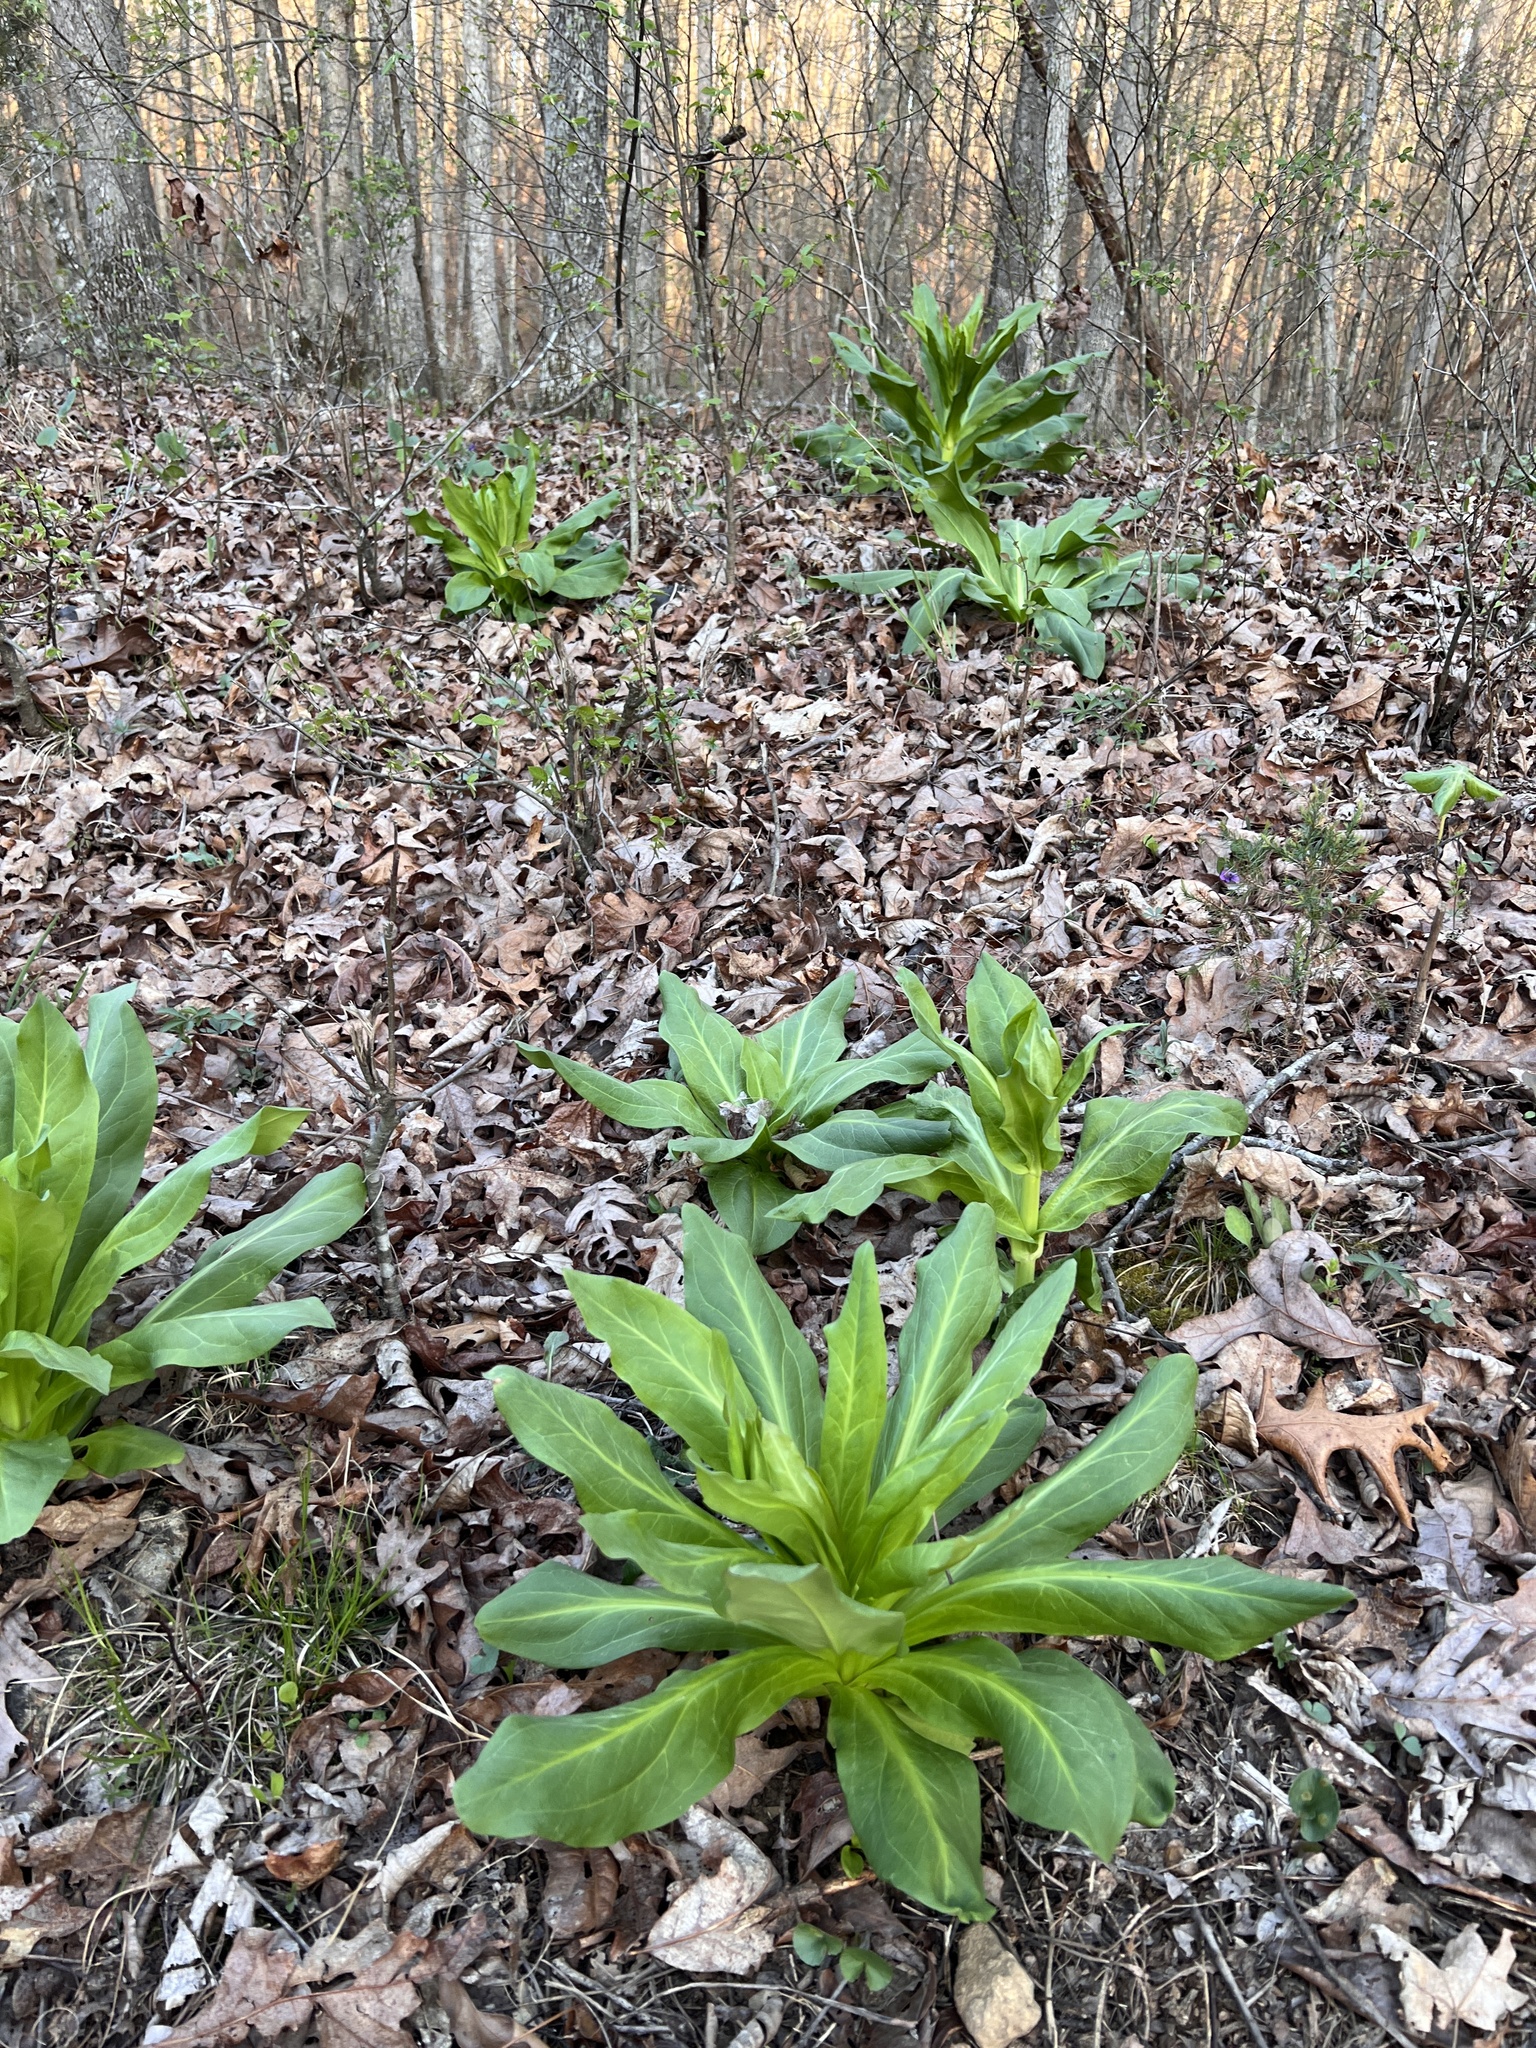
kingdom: Plantae
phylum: Tracheophyta
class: Magnoliopsida
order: Gentianales
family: Gentianaceae
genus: Frasera
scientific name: Frasera caroliniensis
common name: American columbo
